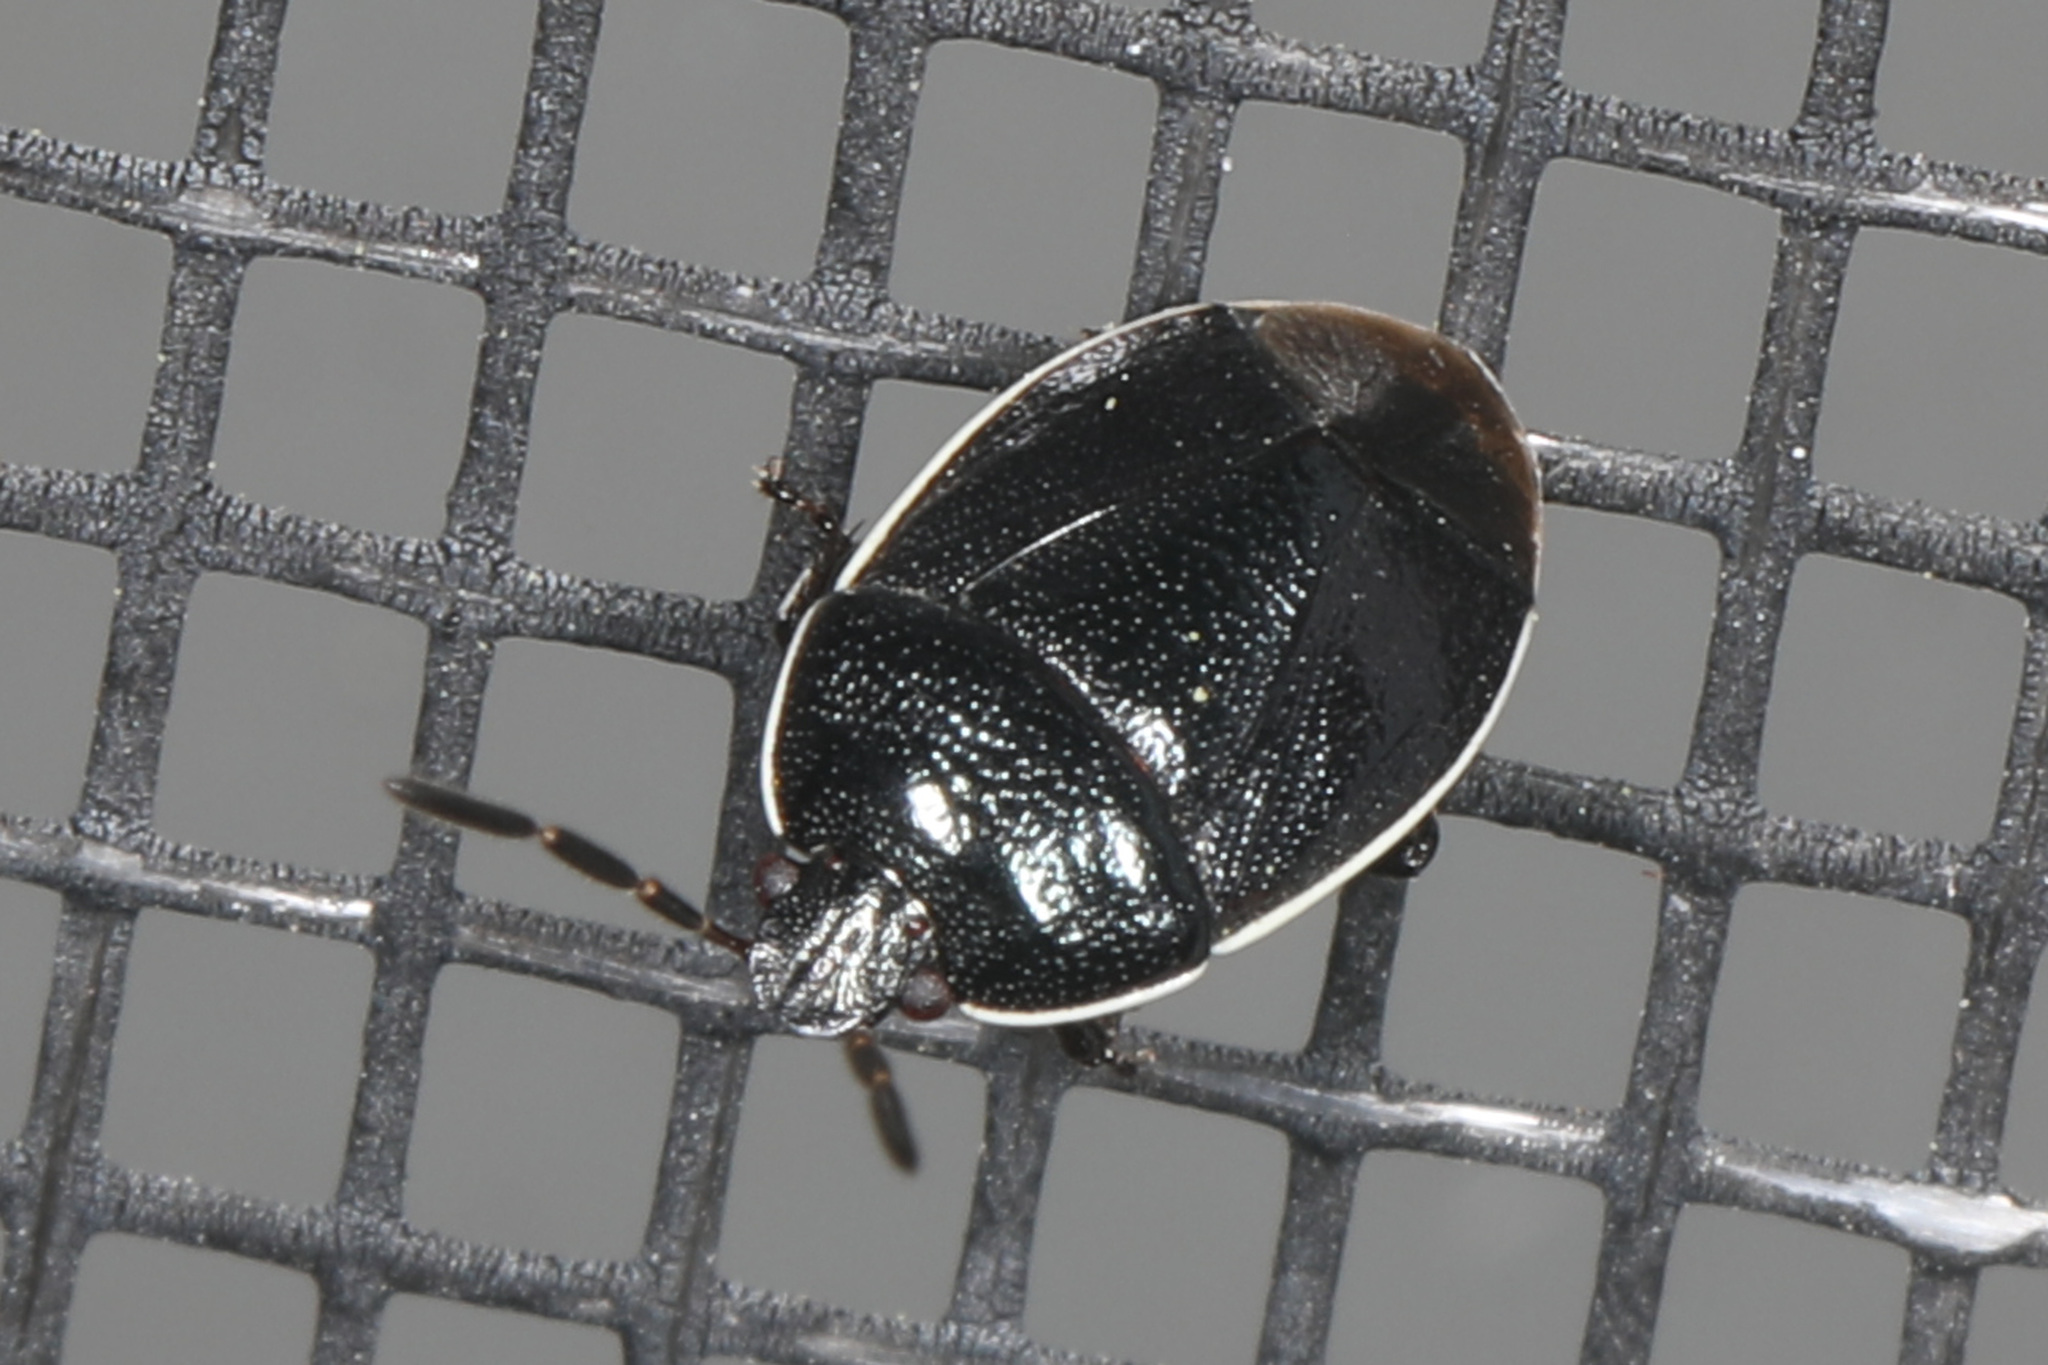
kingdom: Animalia
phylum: Arthropoda
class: Insecta
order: Hemiptera
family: Cydnidae
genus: Sehirus
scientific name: Sehirus cinctus
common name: White-margined burrower bug
